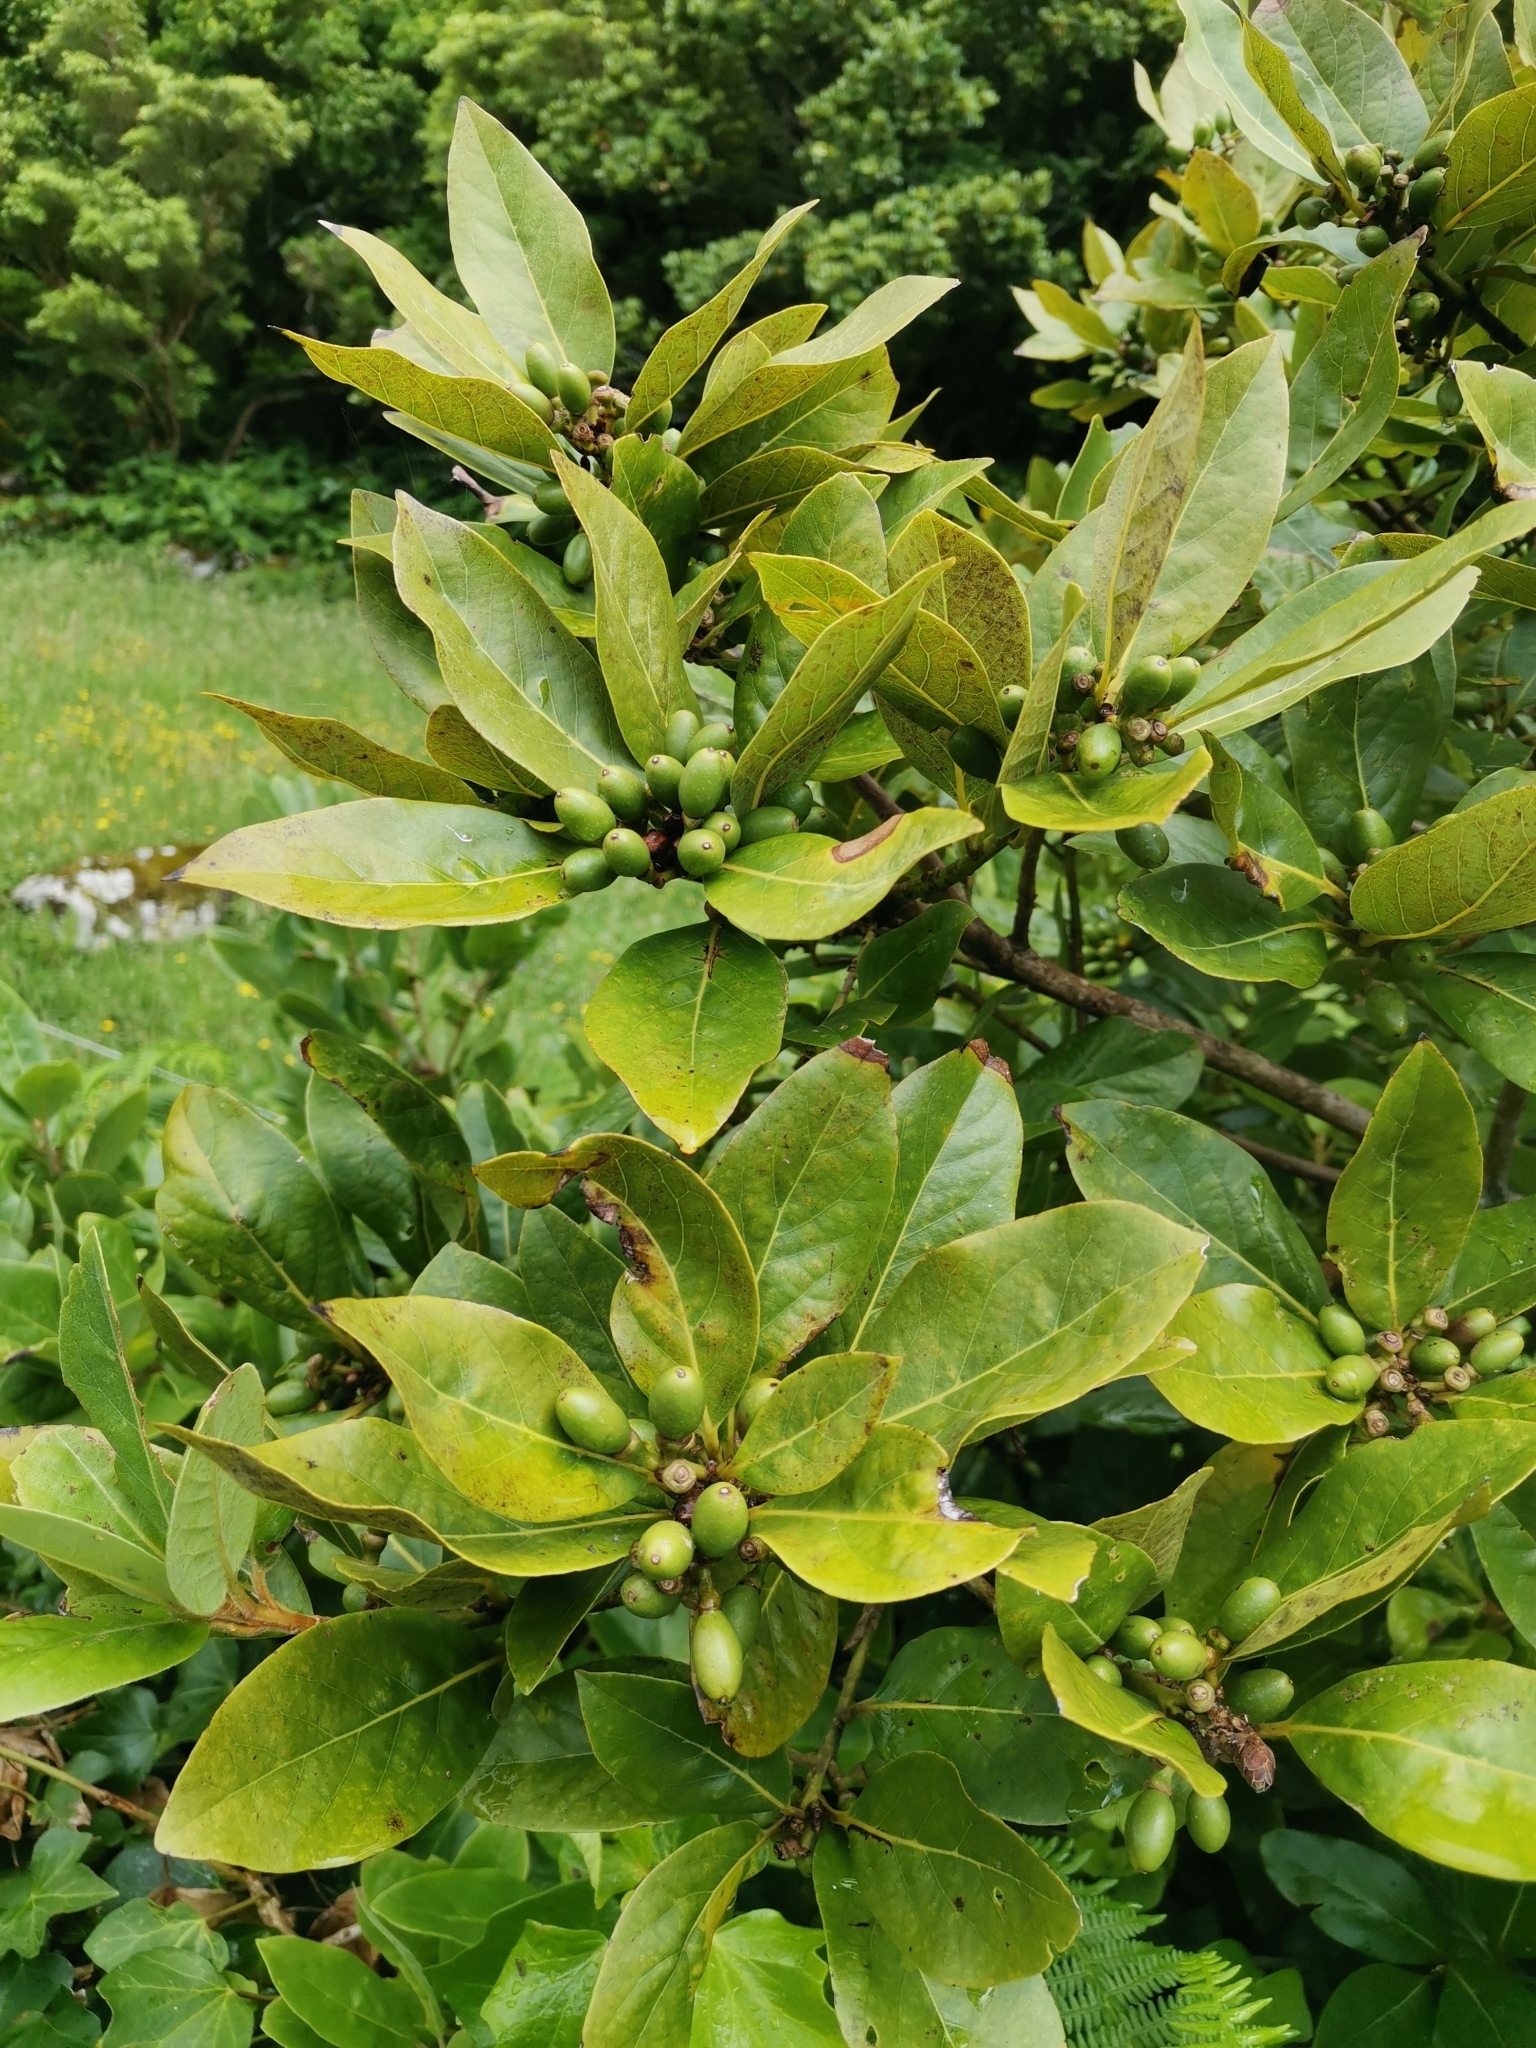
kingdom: Plantae
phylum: Tracheophyta
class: Magnoliopsida
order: Laurales
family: Lauraceae
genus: Laurus
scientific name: Laurus azorica
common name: Macaronesian laurel
